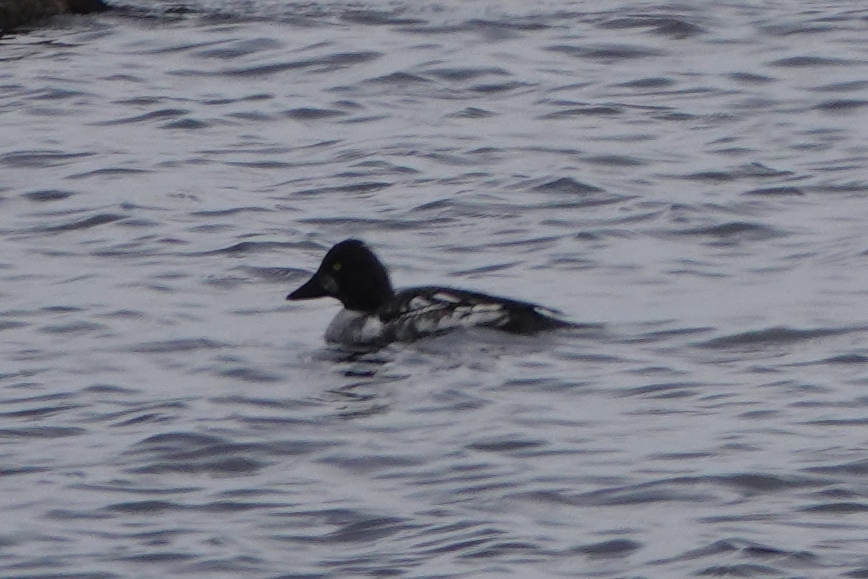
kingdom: Animalia
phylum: Chordata
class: Aves
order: Anseriformes
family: Anatidae
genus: Bucephala
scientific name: Bucephala clangula
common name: Common goldeneye
